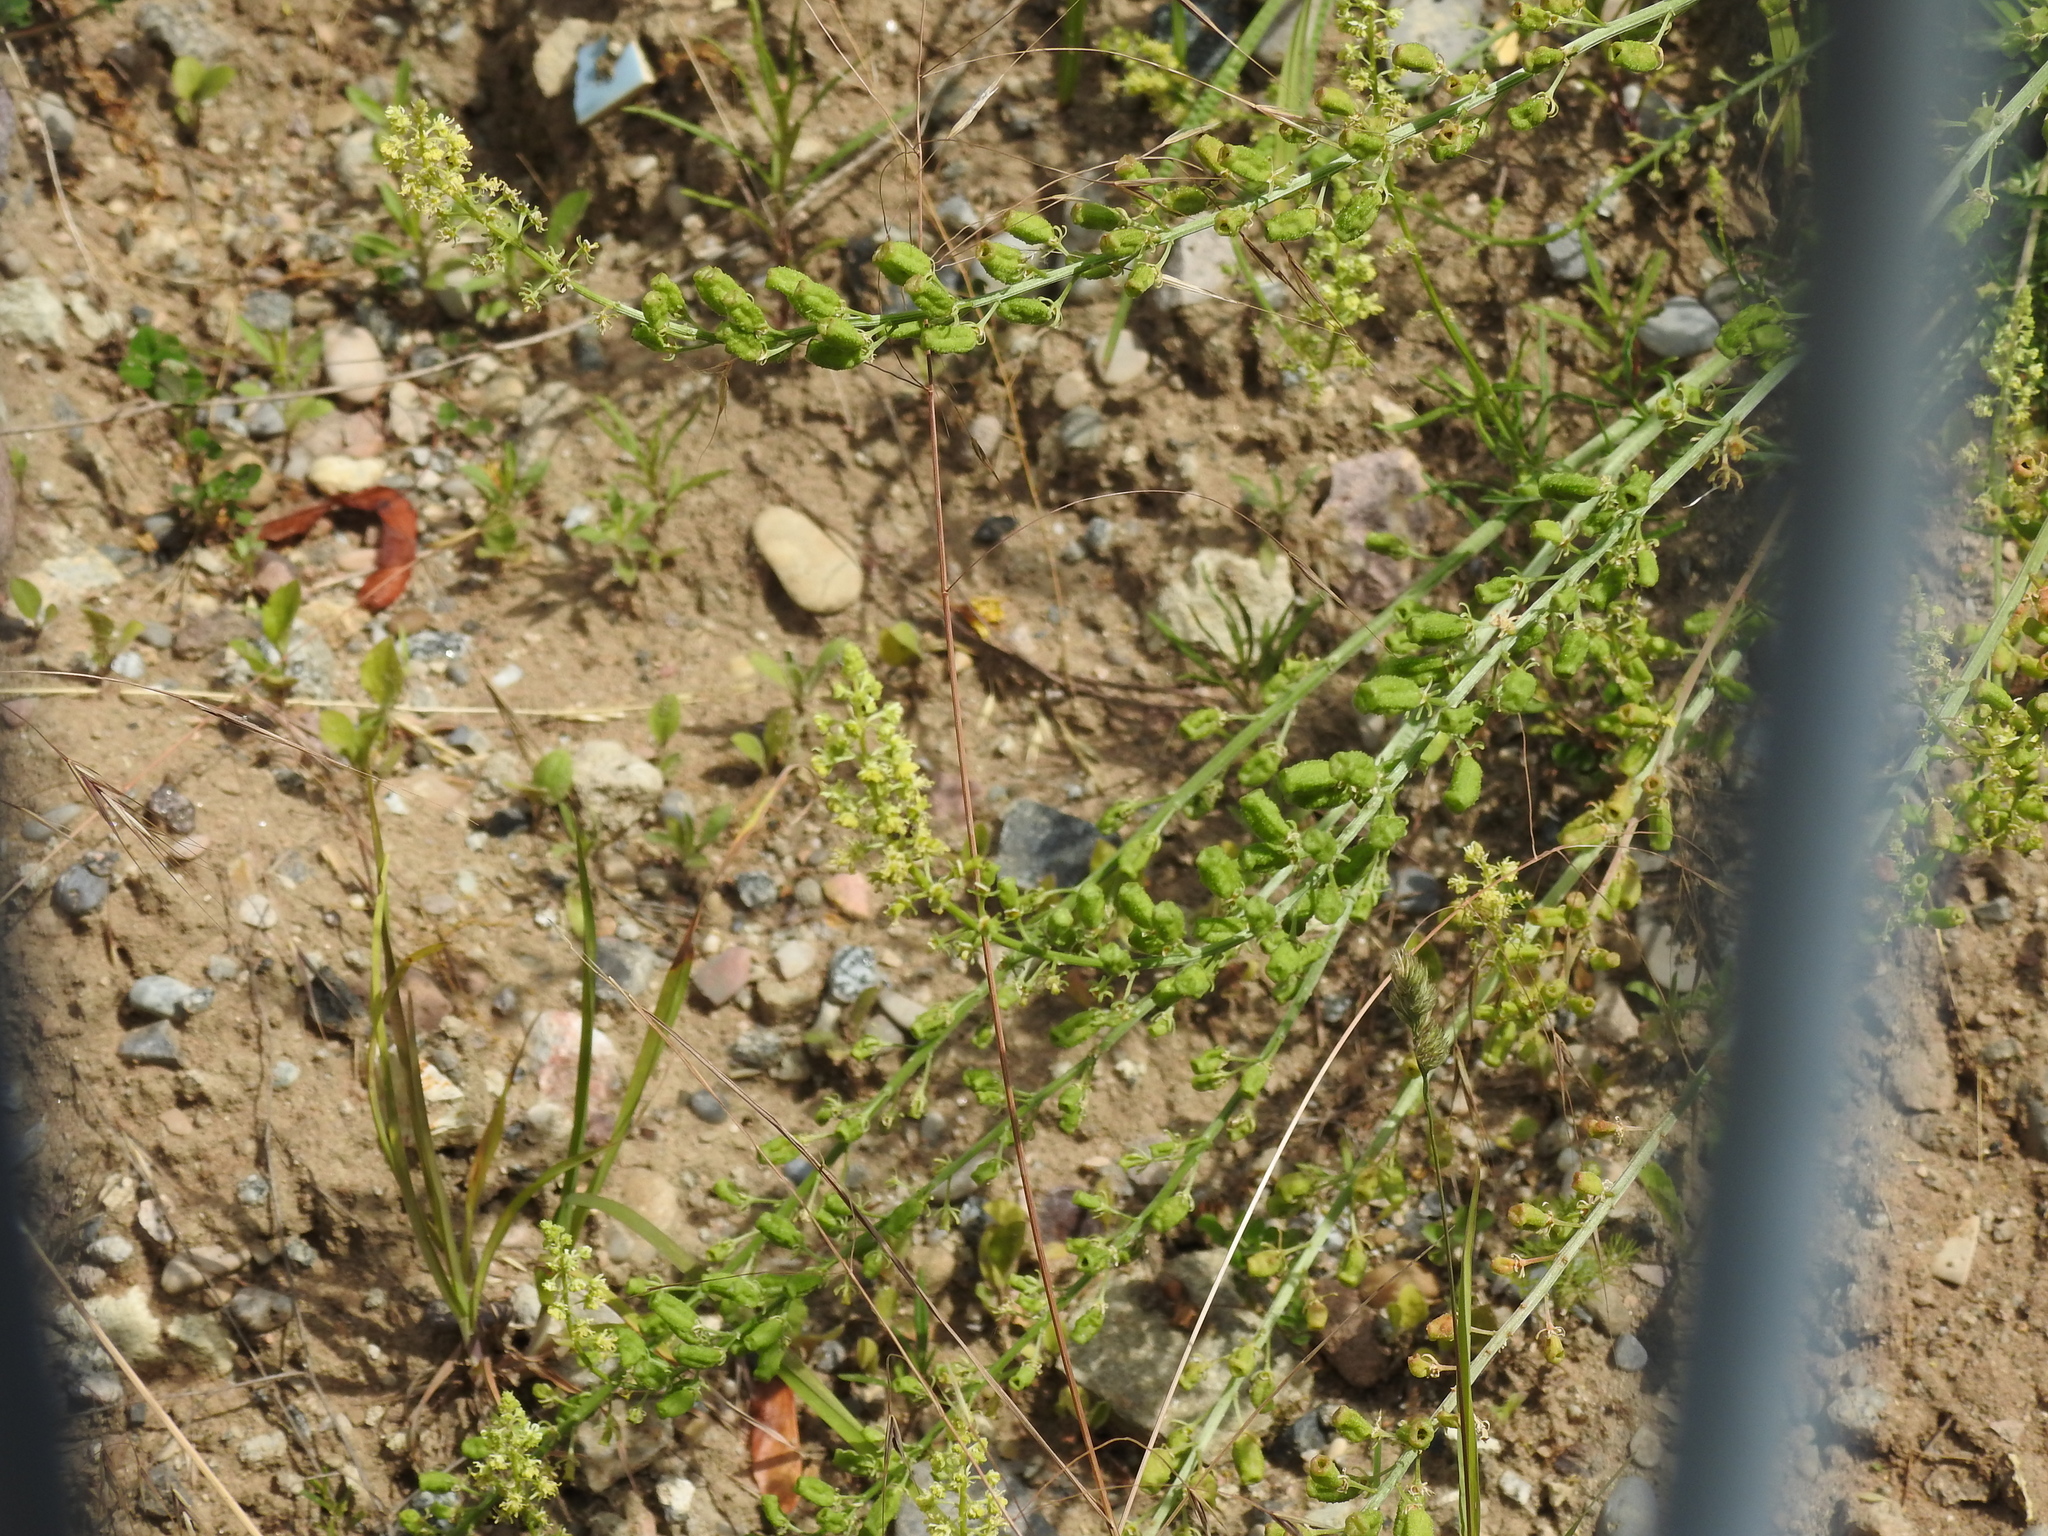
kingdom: Plantae
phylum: Tracheophyta
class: Magnoliopsida
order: Brassicales
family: Resedaceae
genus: Reseda
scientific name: Reseda lutea
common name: Wild mignonette
